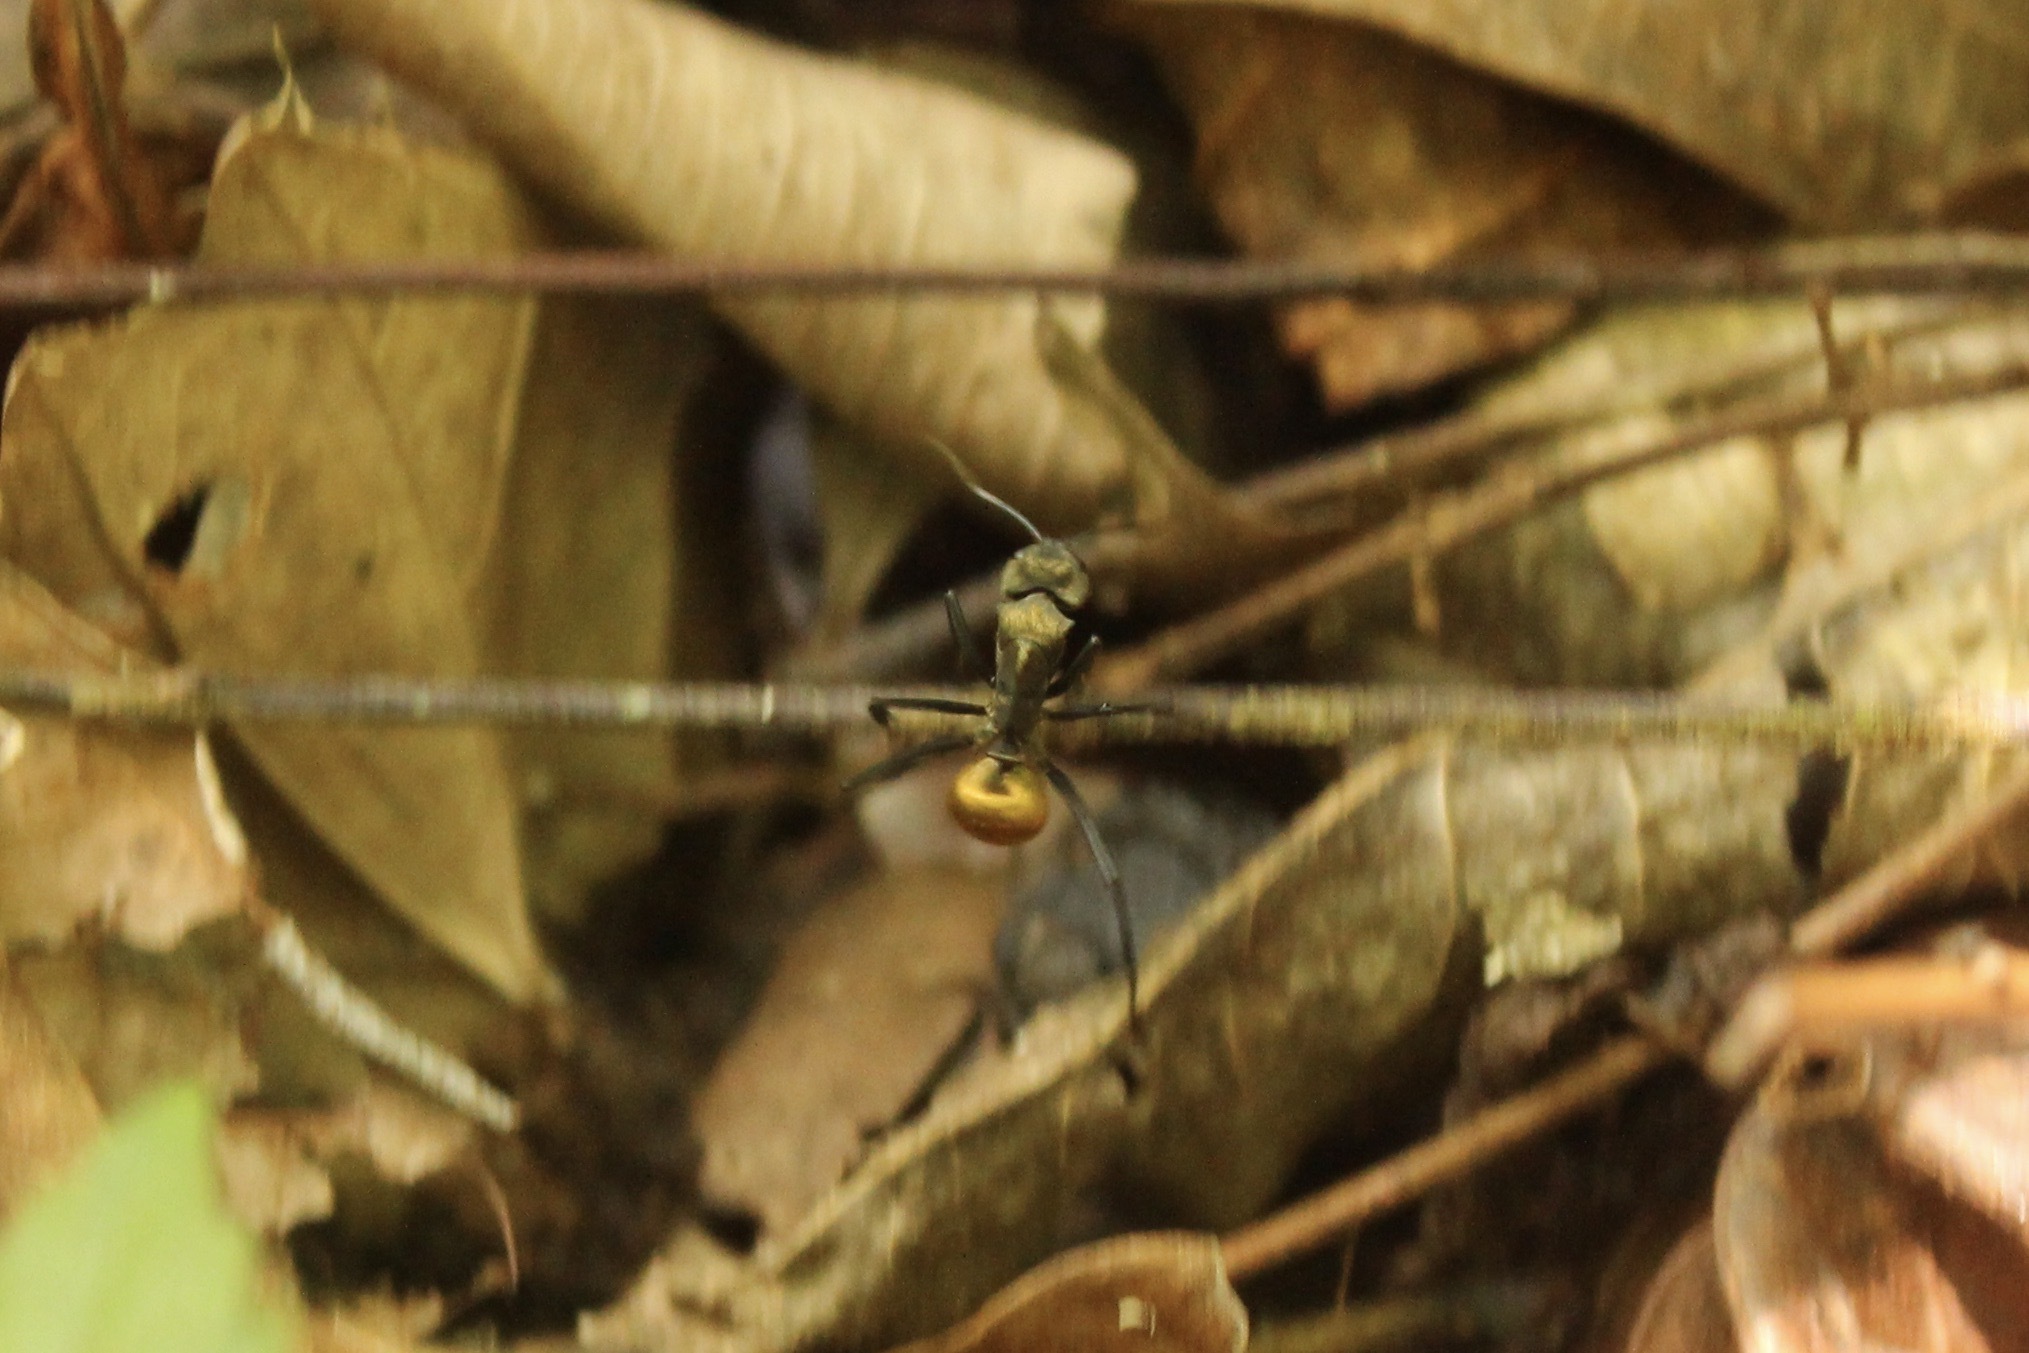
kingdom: Animalia
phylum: Arthropoda
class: Insecta
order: Hymenoptera
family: Formicidae
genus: Camponotus
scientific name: Camponotus sericeiventris
